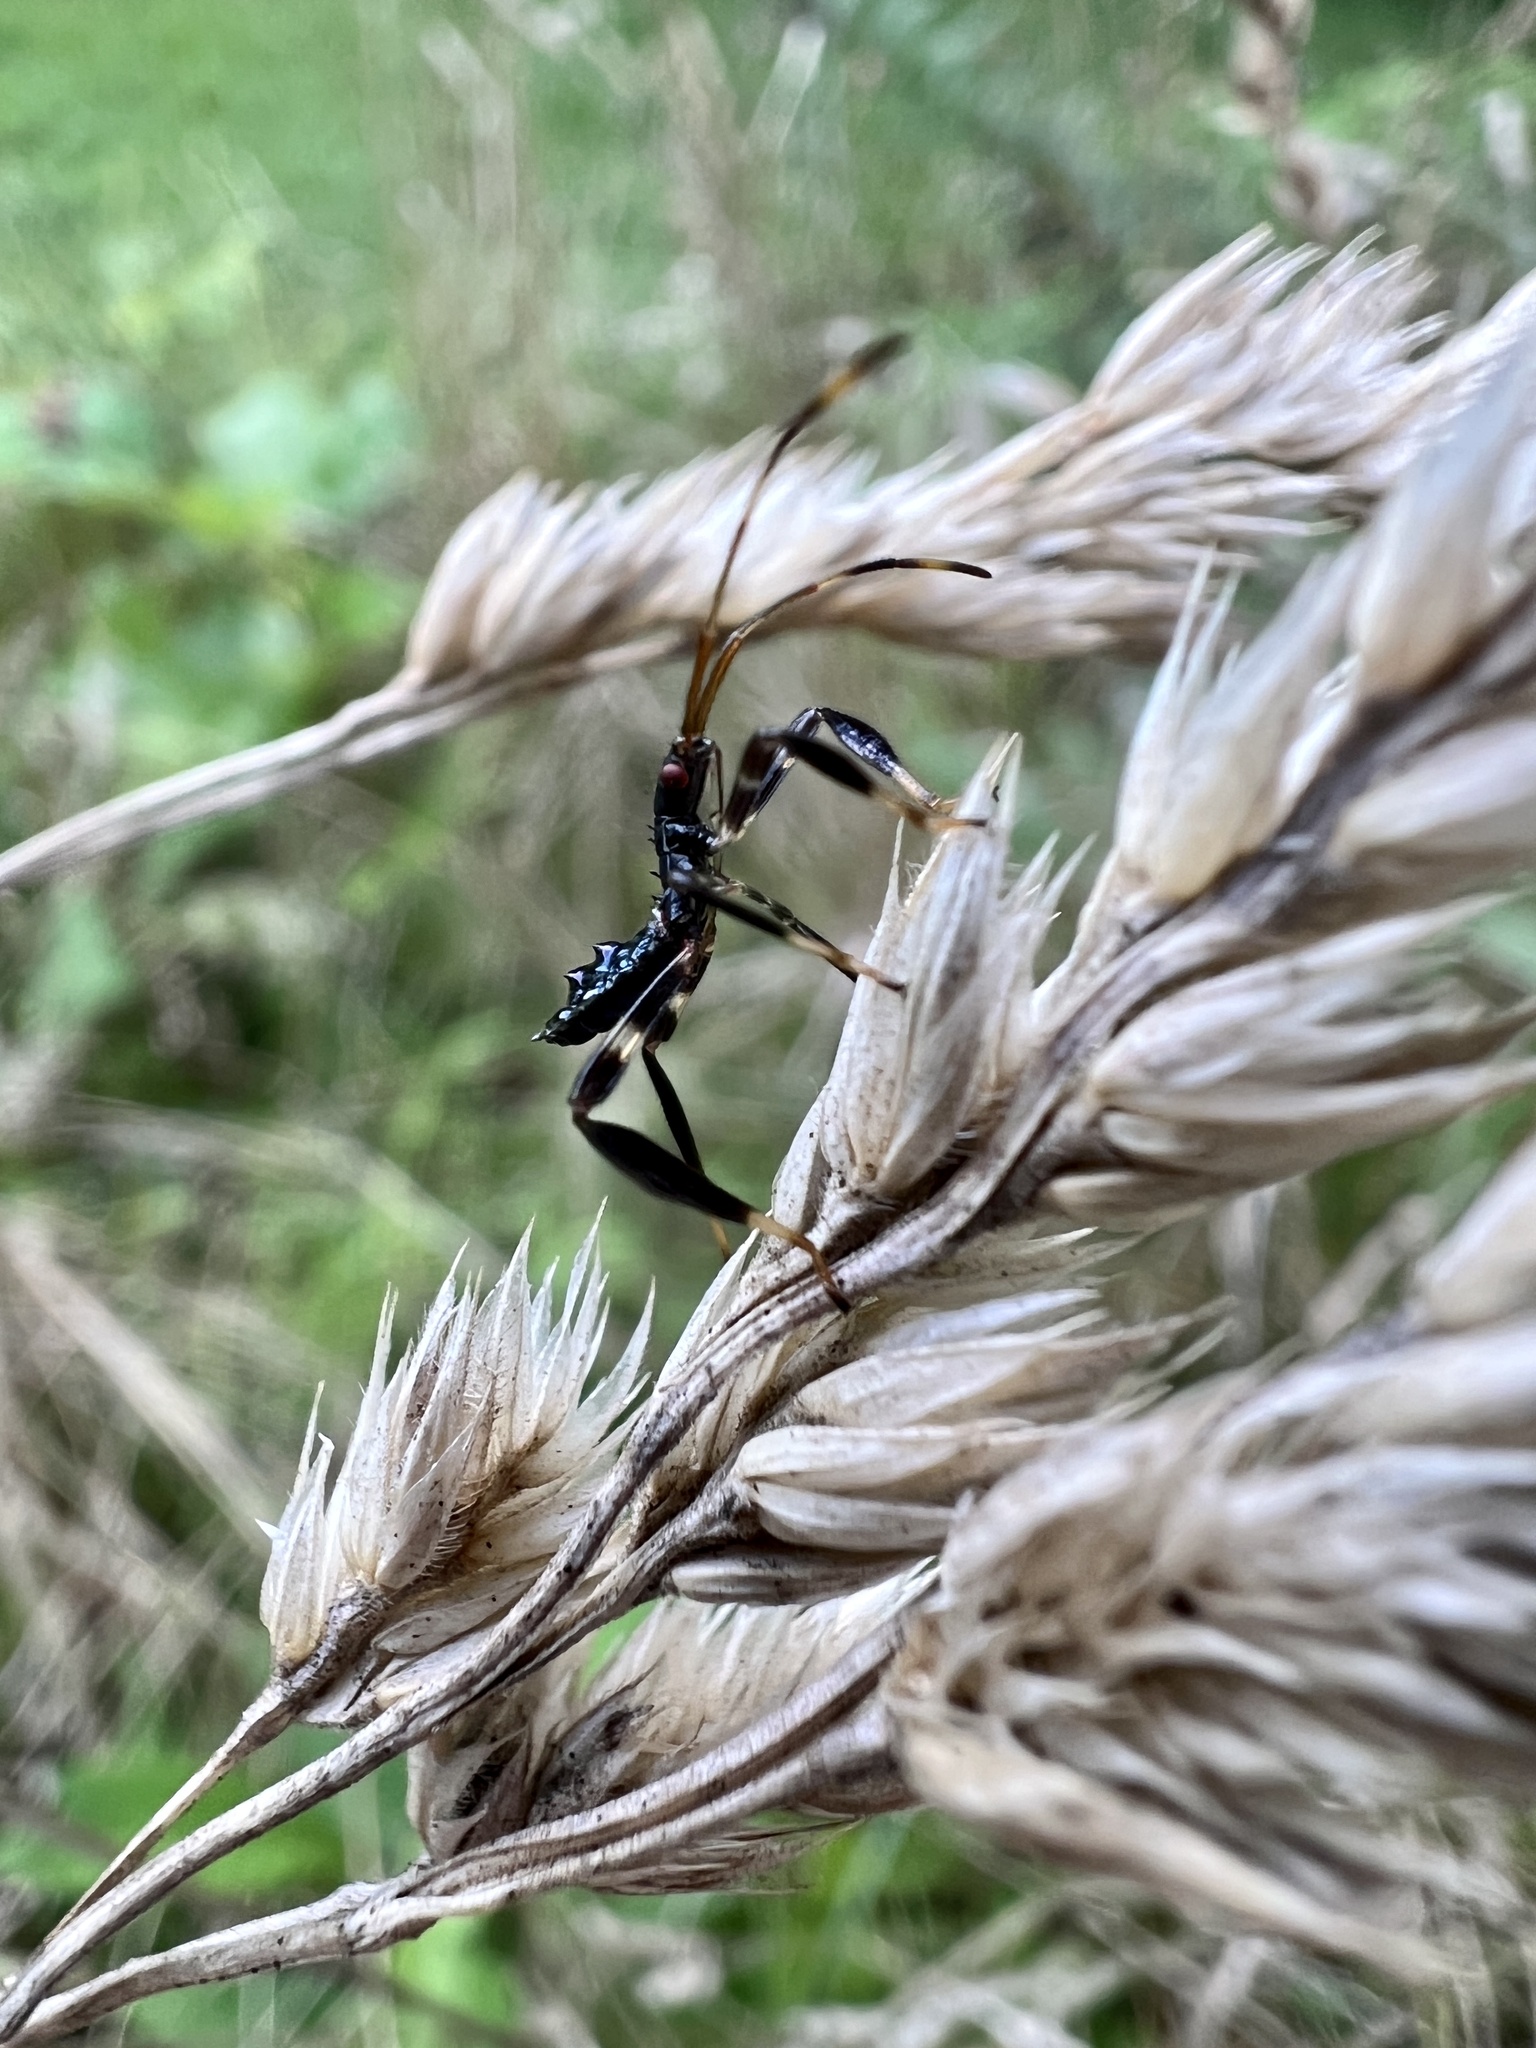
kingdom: Animalia
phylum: Arthropoda
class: Insecta
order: Hemiptera
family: Coreidae
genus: Acanthocephala
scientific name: Acanthocephala terminalis
